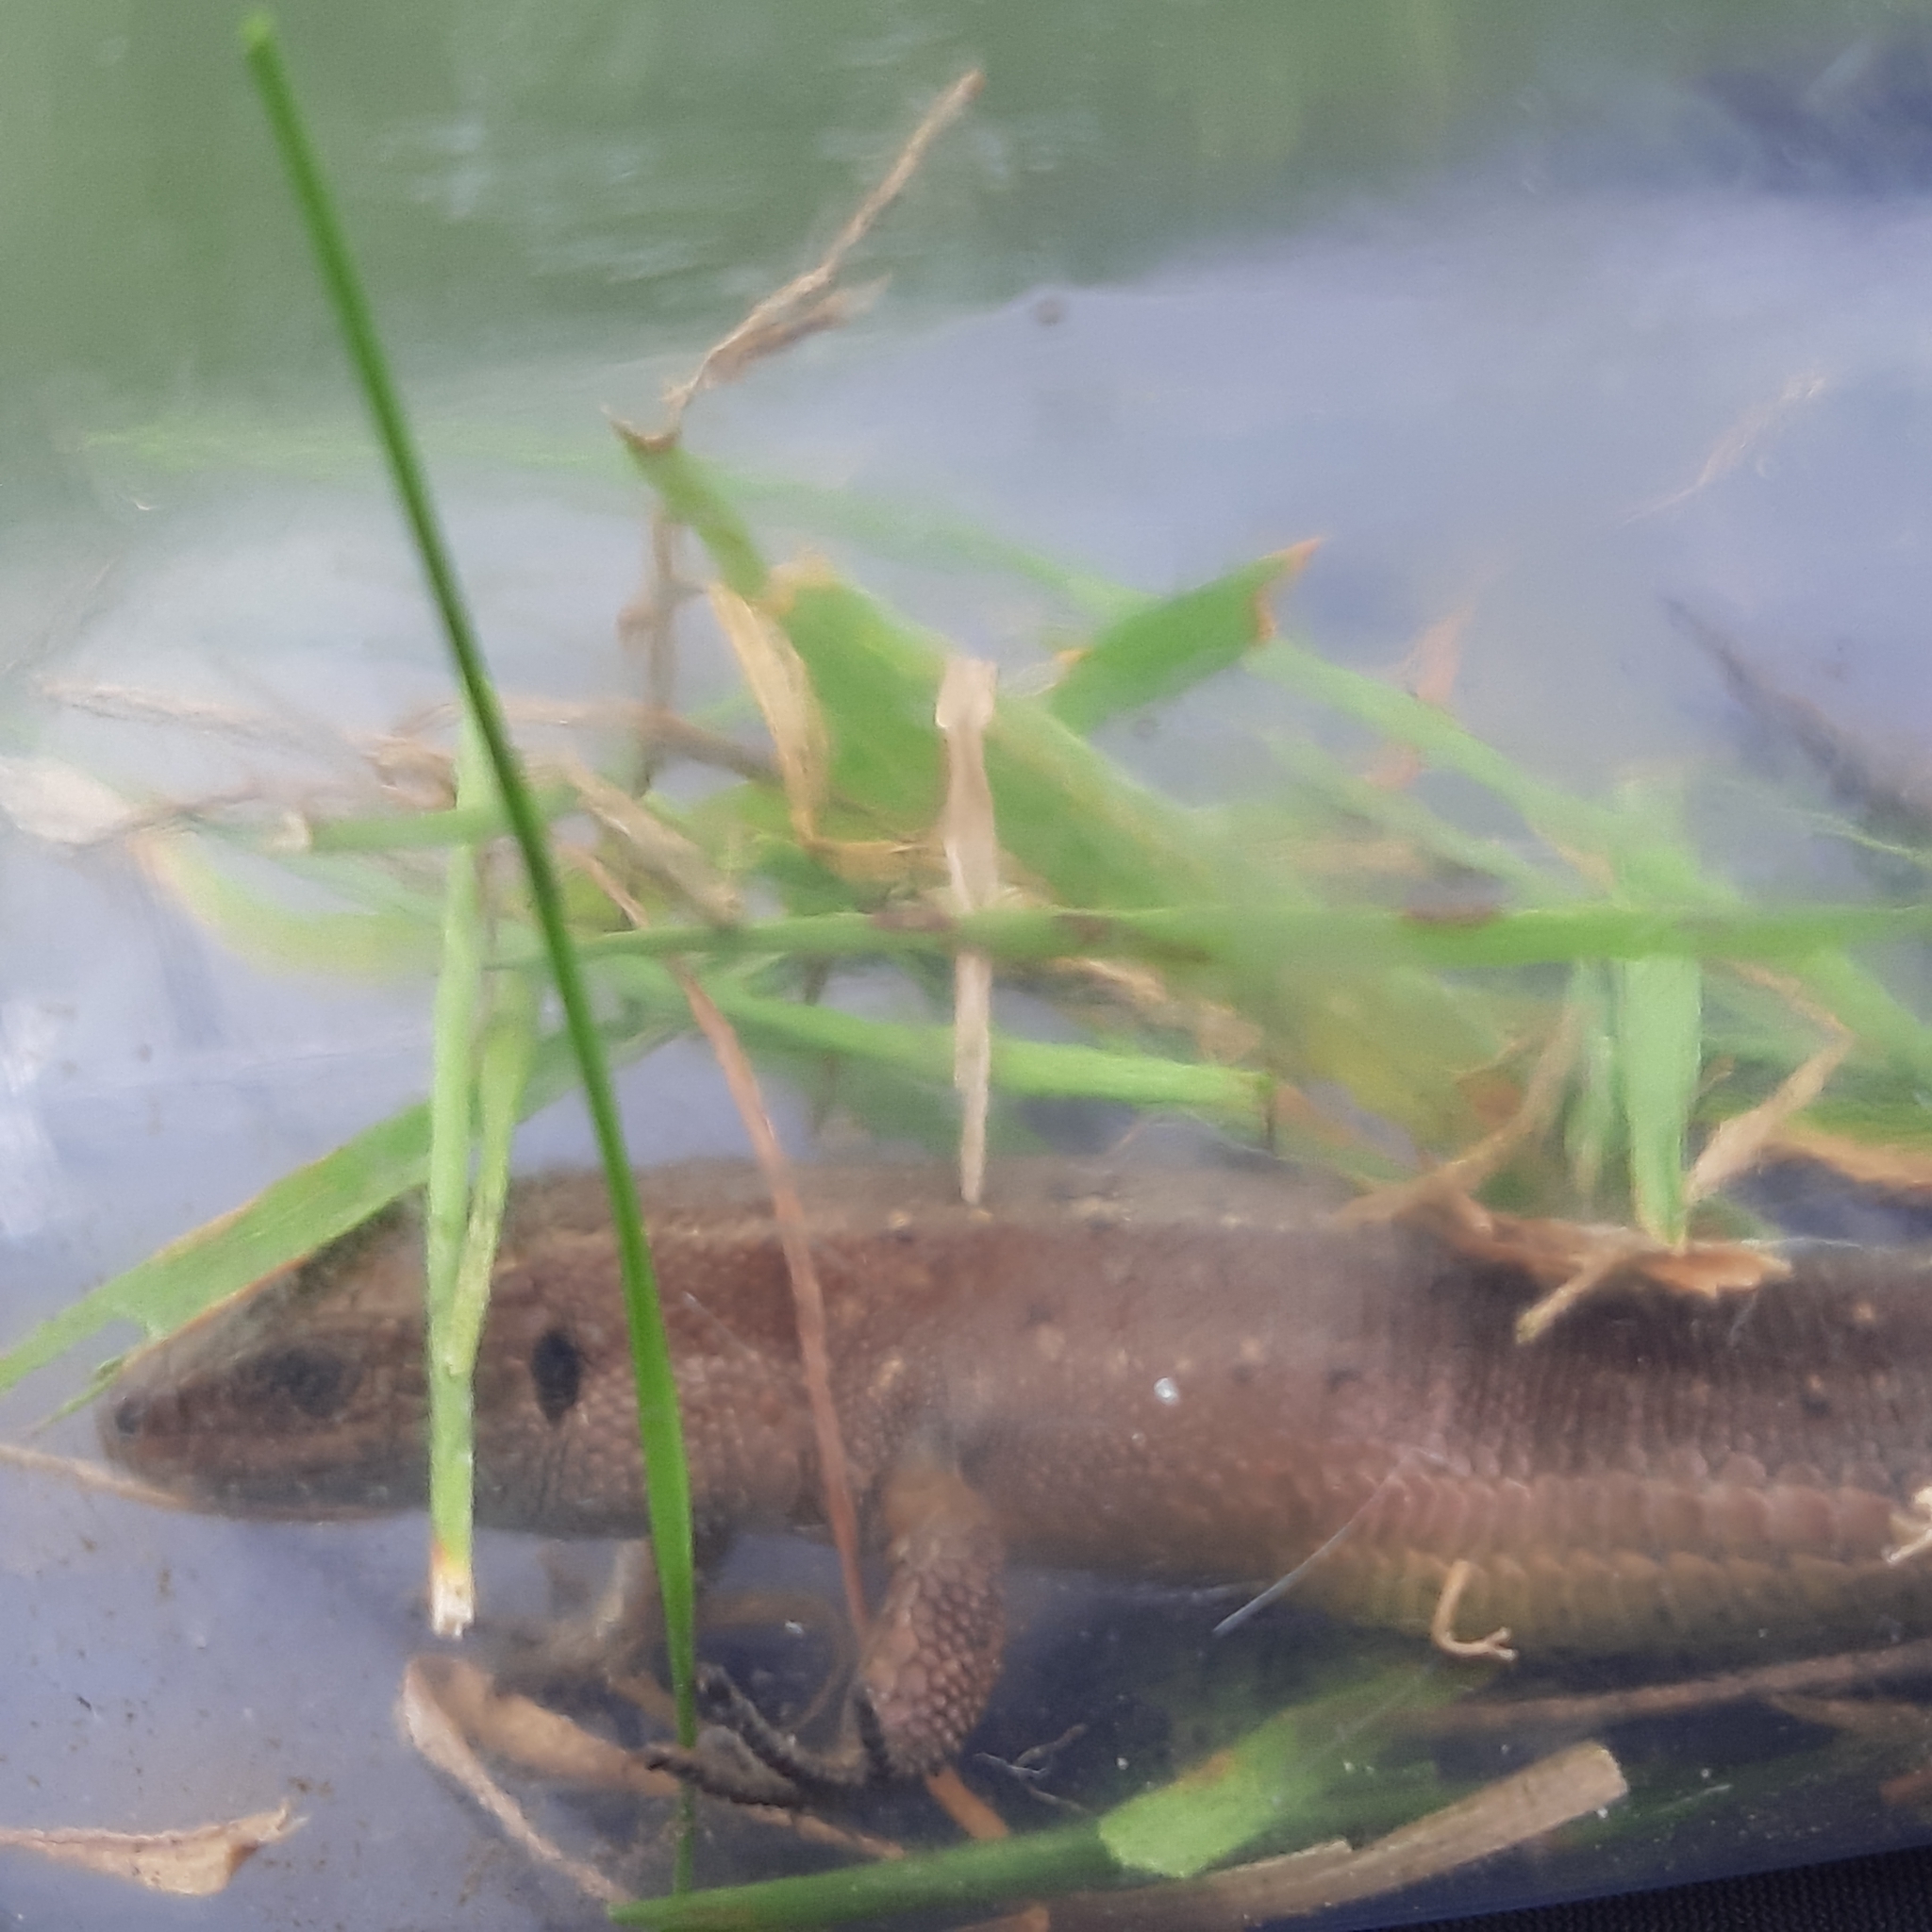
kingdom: Animalia
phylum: Chordata
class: Squamata
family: Lacertidae
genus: Zootoca
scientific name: Zootoca vivipara
